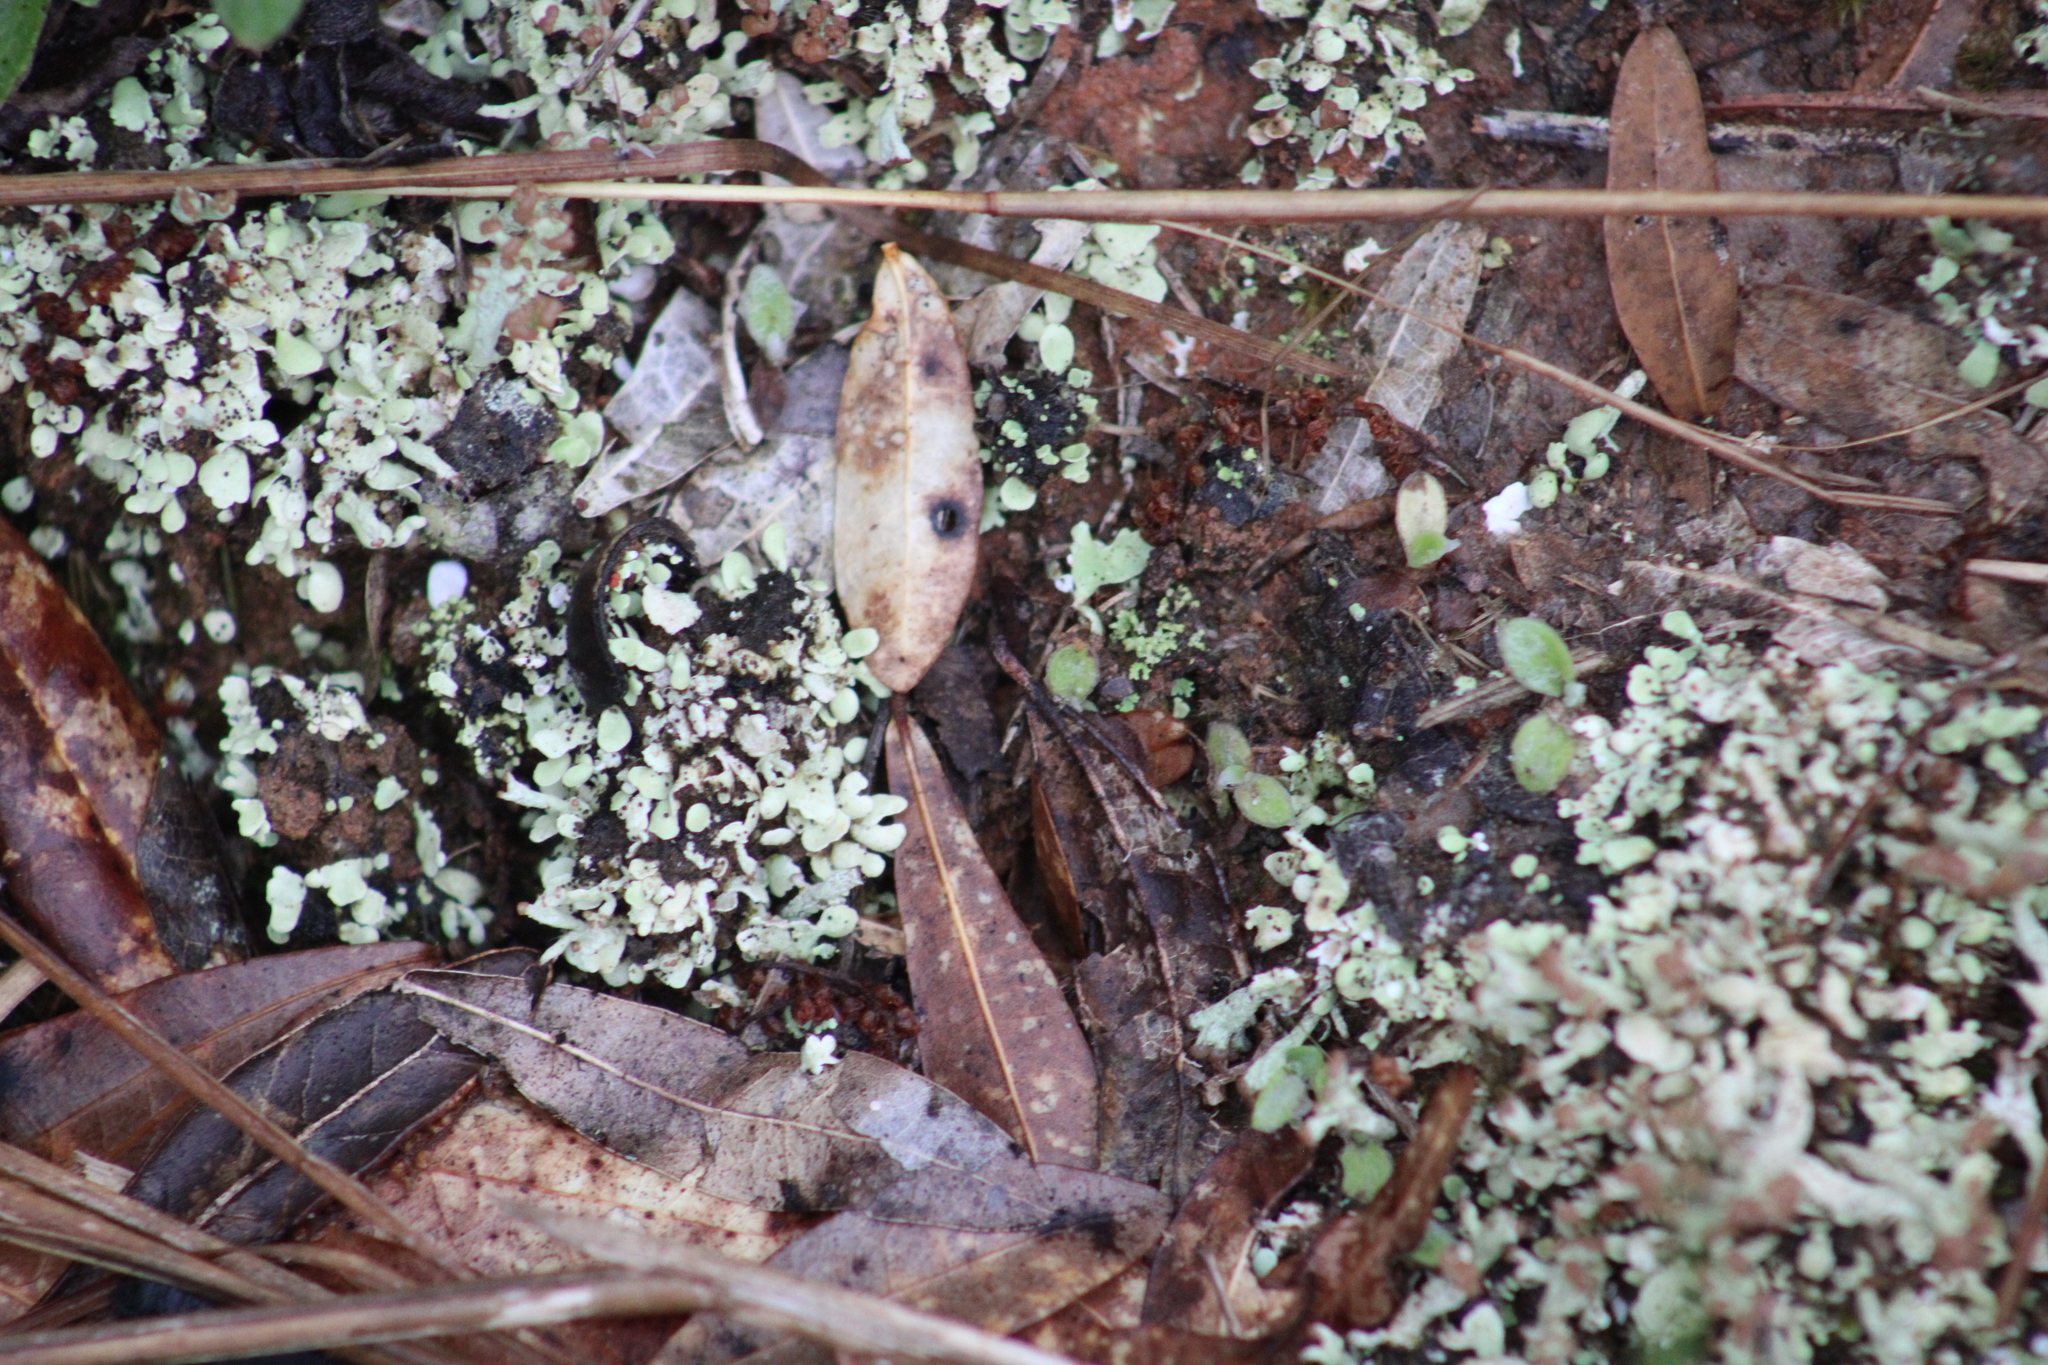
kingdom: Fungi
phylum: Ascomycota
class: Lecanoromycetes
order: Lecanorales
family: Cladoniaceae
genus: Cladonia
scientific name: Cladonia peziziformis
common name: Cup lichen
